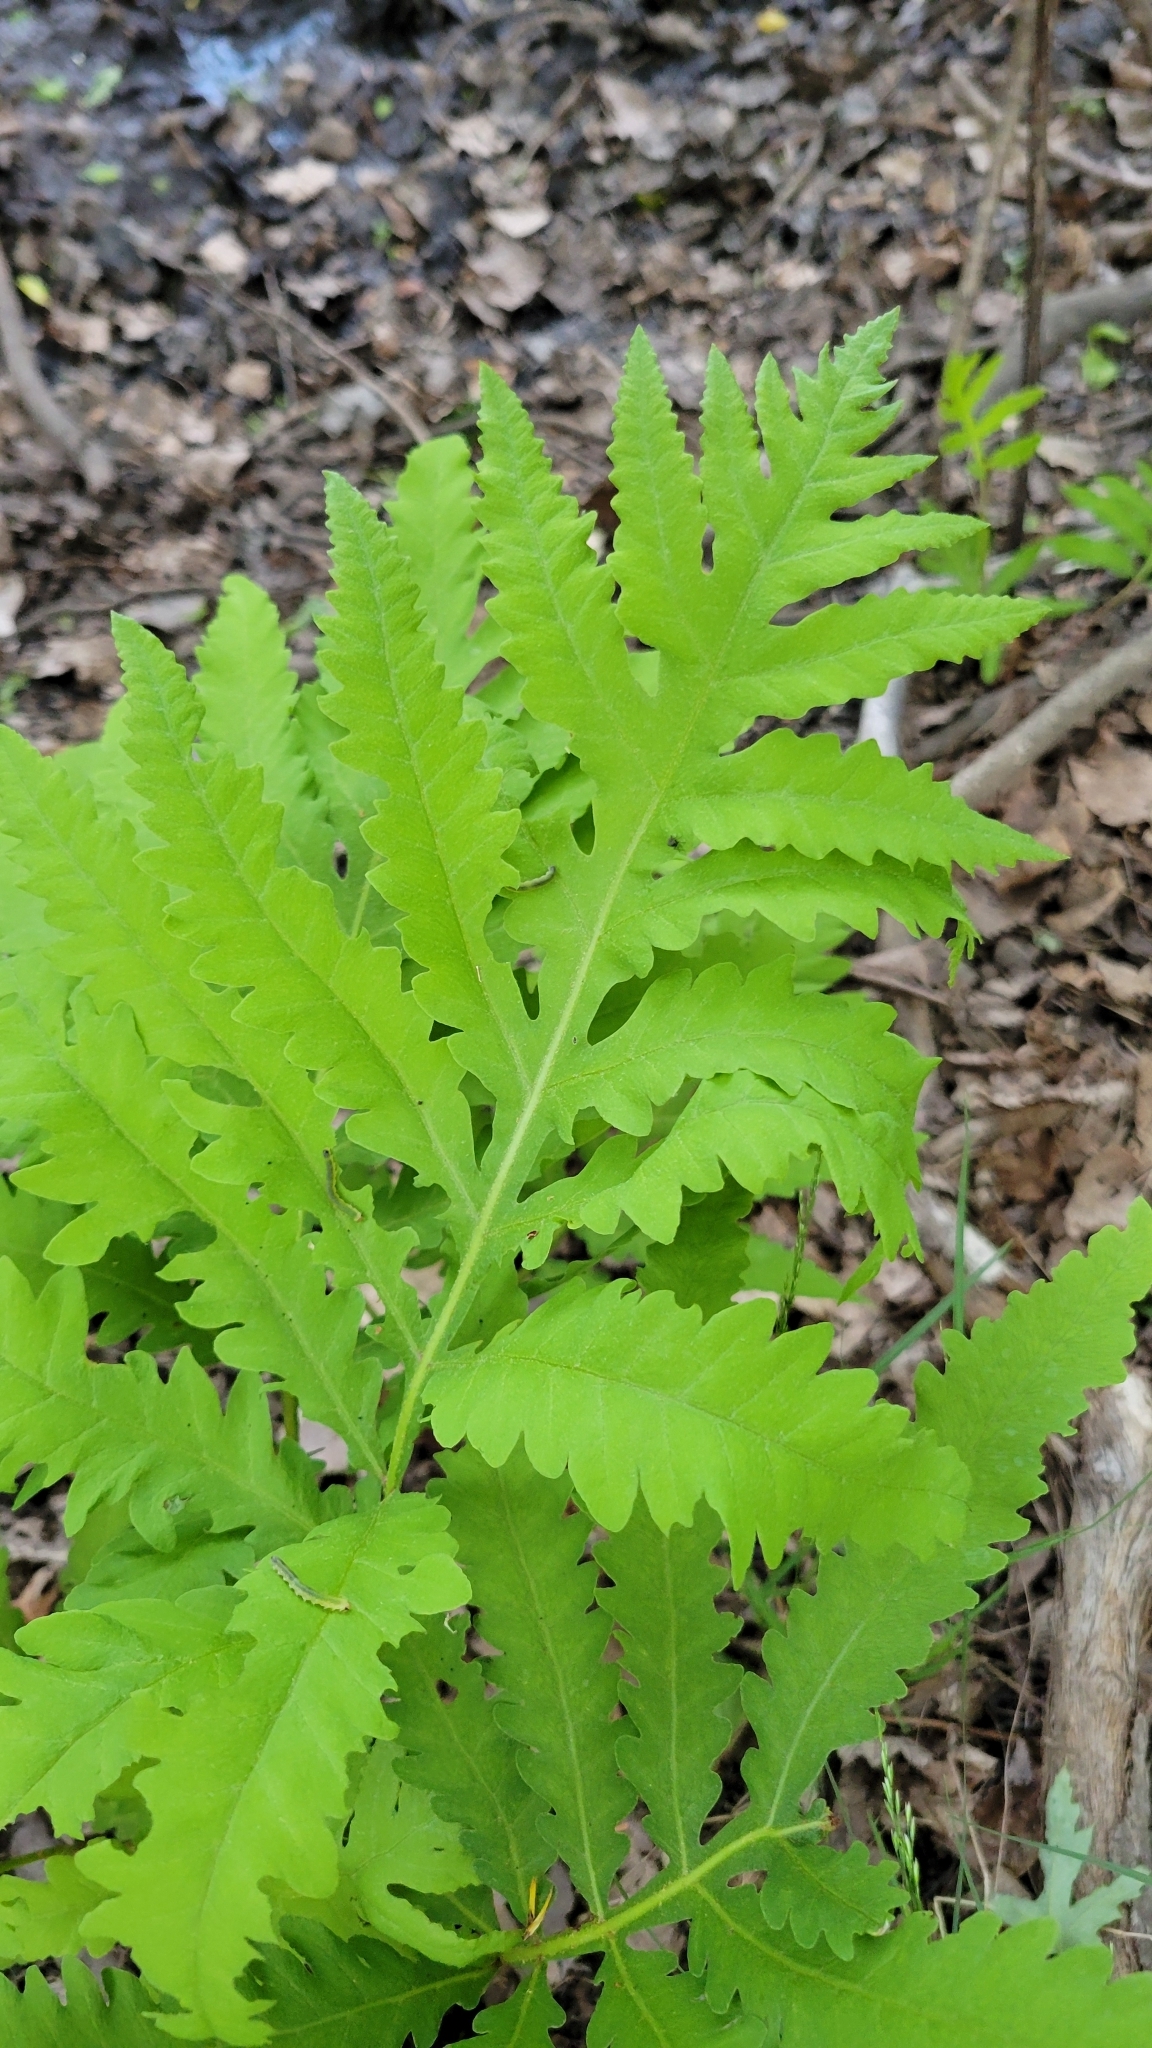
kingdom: Plantae
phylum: Tracheophyta
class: Polypodiopsida
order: Polypodiales
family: Onocleaceae
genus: Onoclea
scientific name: Onoclea sensibilis
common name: Sensitive fern
